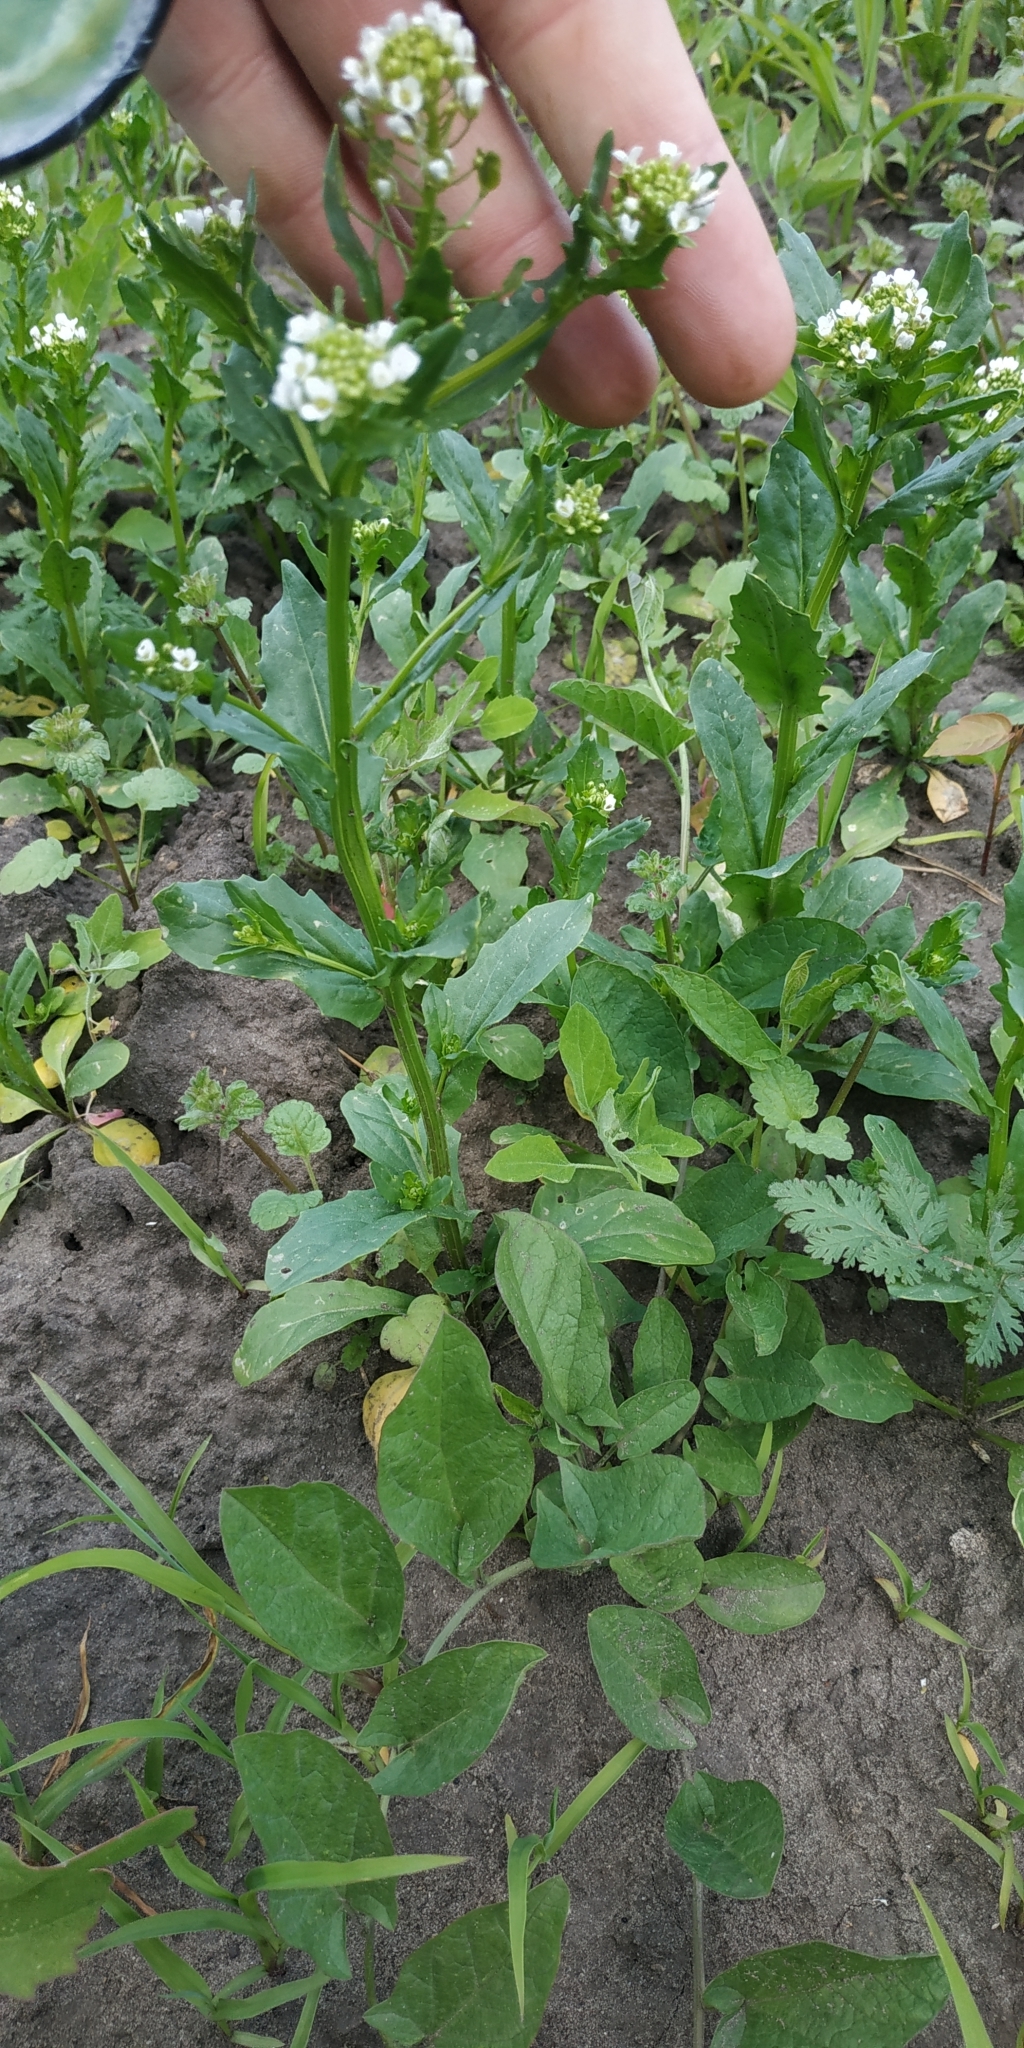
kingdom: Plantae
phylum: Tracheophyta
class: Magnoliopsida
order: Brassicales
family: Brassicaceae
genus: Thlaspi
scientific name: Thlaspi arvense
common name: Field pennycress
